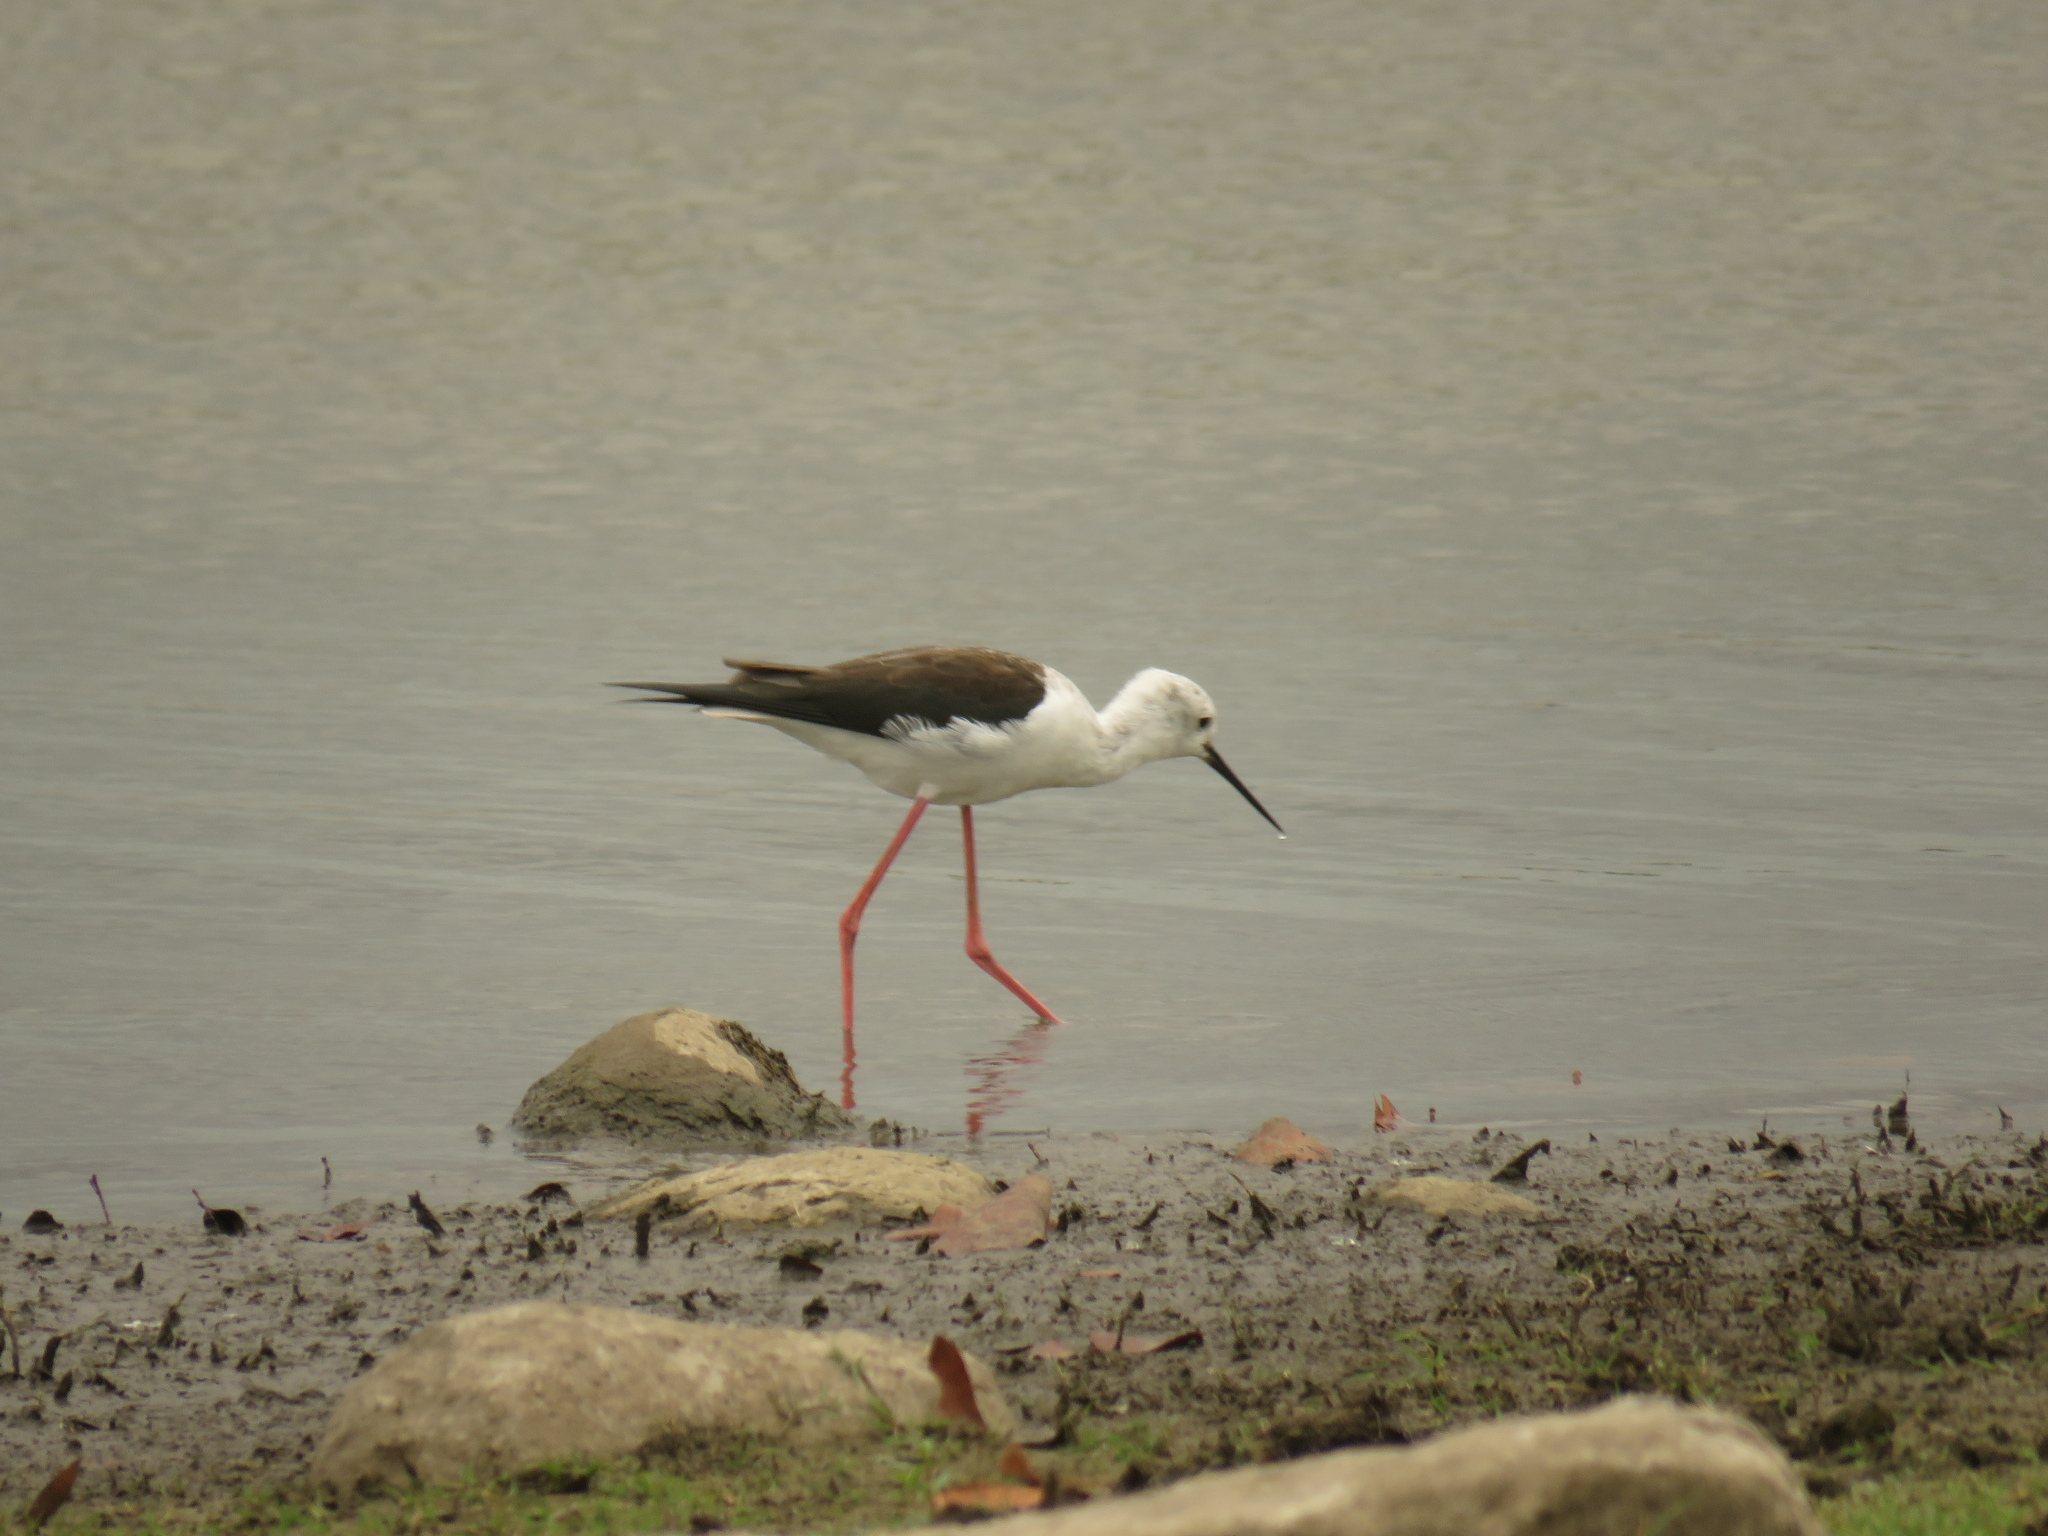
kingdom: Animalia
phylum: Chordata
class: Aves
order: Charadriiformes
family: Recurvirostridae
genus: Himantopus
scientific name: Himantopus himantopus
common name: Black-winged stilt
